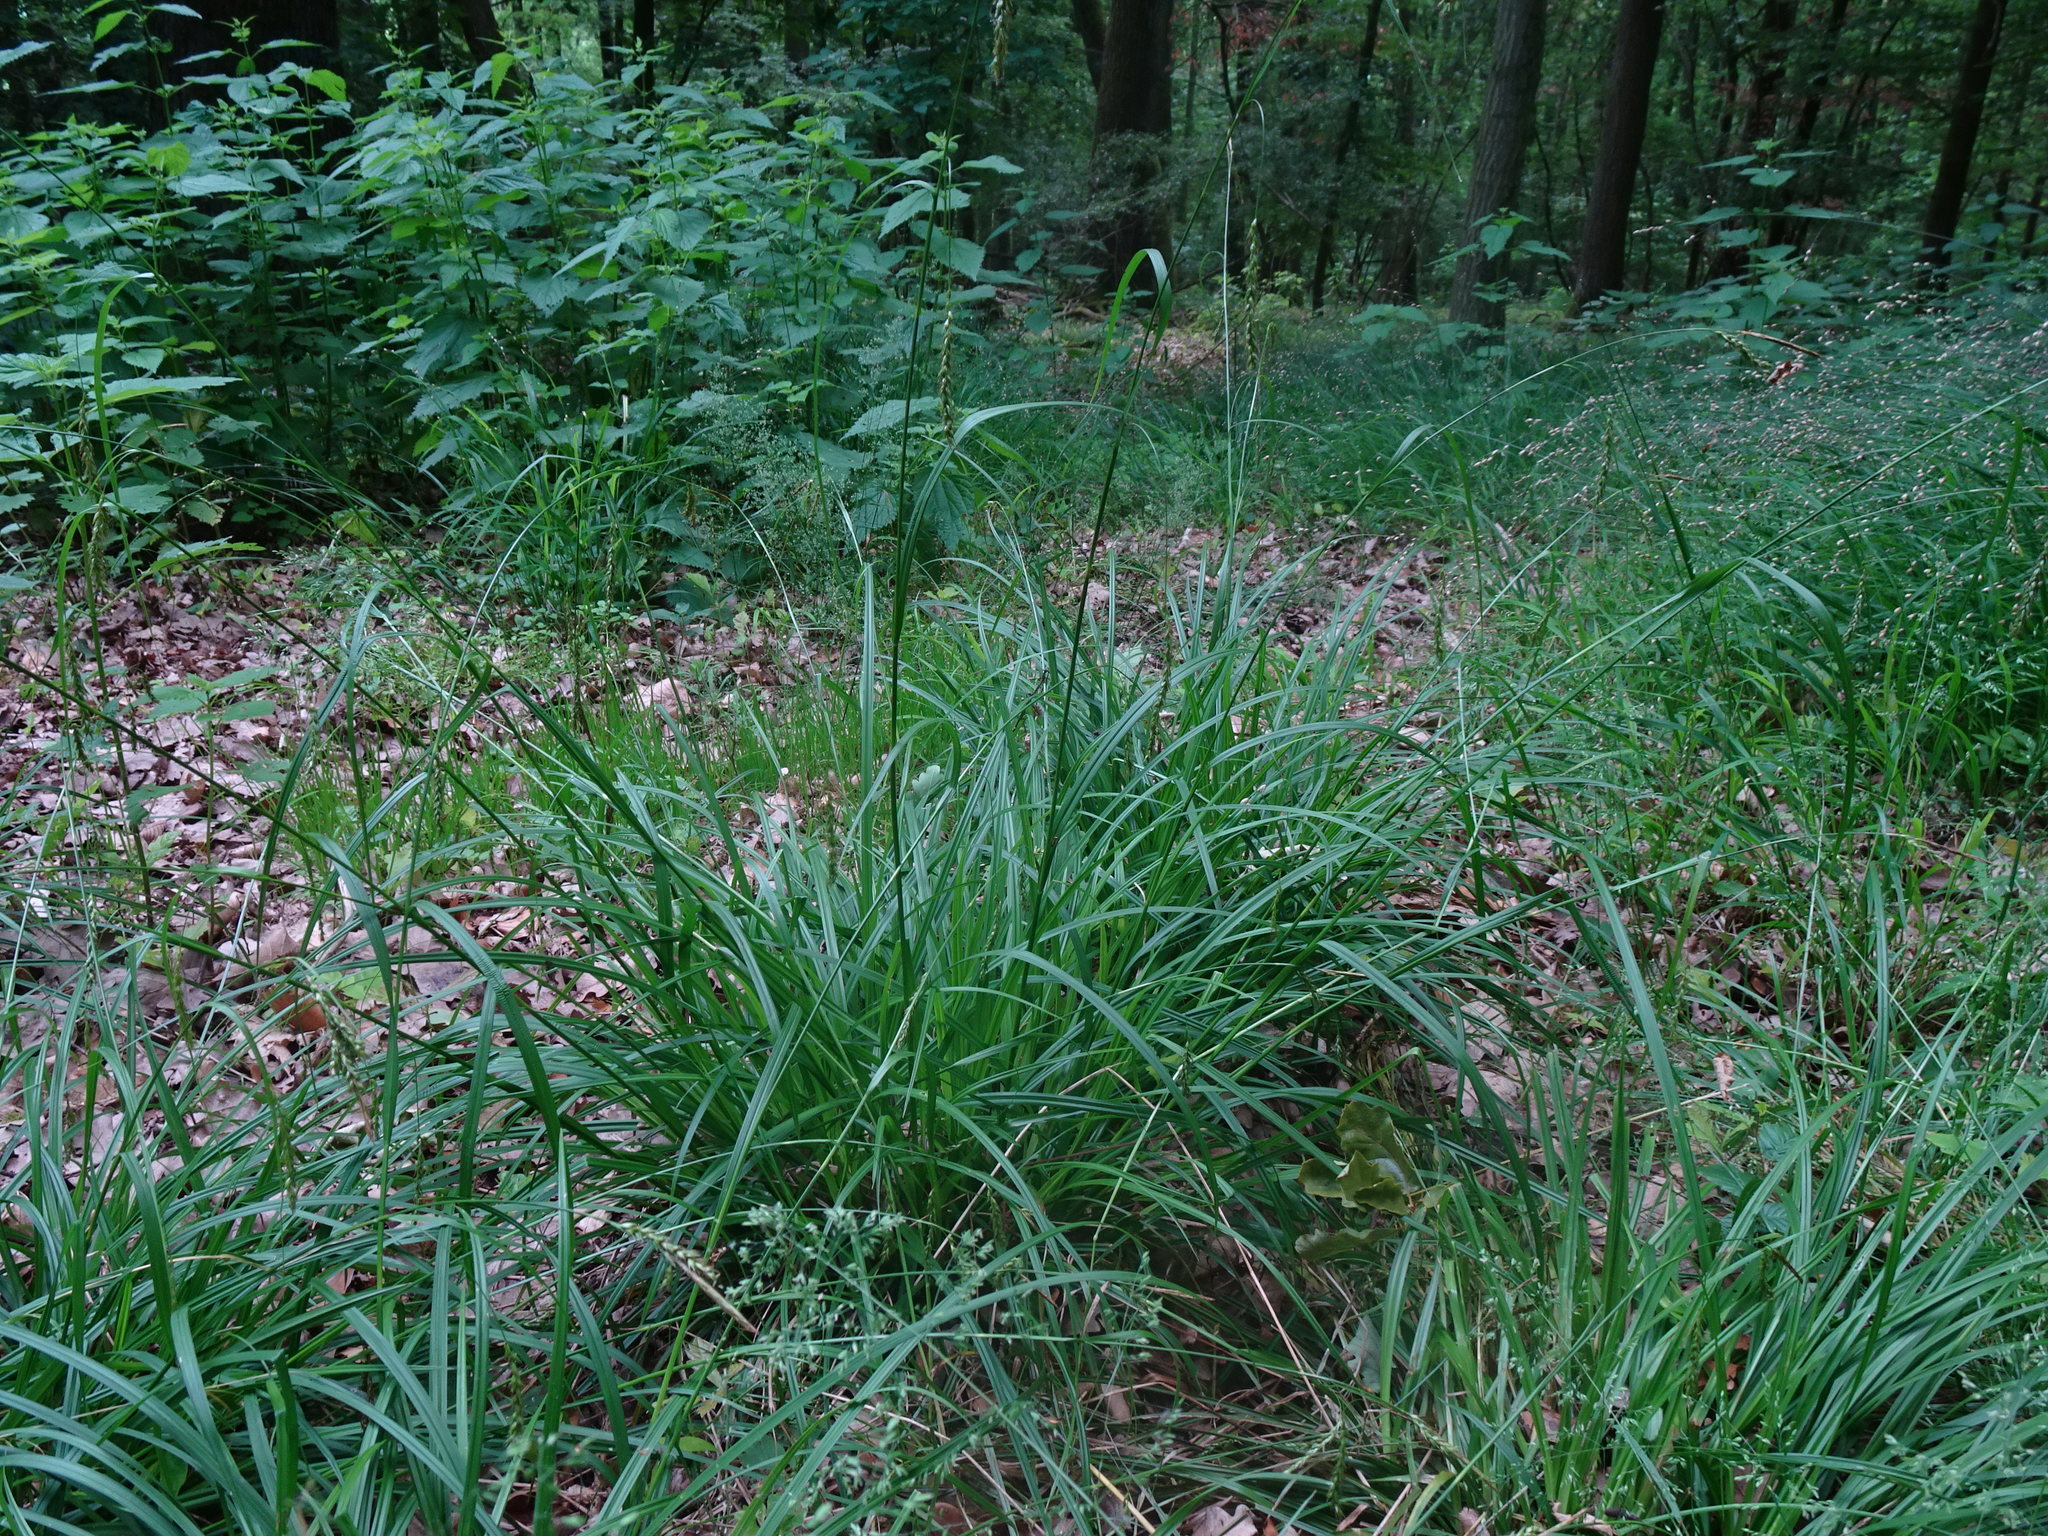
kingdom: Plantae
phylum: Tracheophyta
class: Liliopsida
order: Poales
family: Cyperaceae
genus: Carex
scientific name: Carex sylvatica
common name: Wood-sedge
